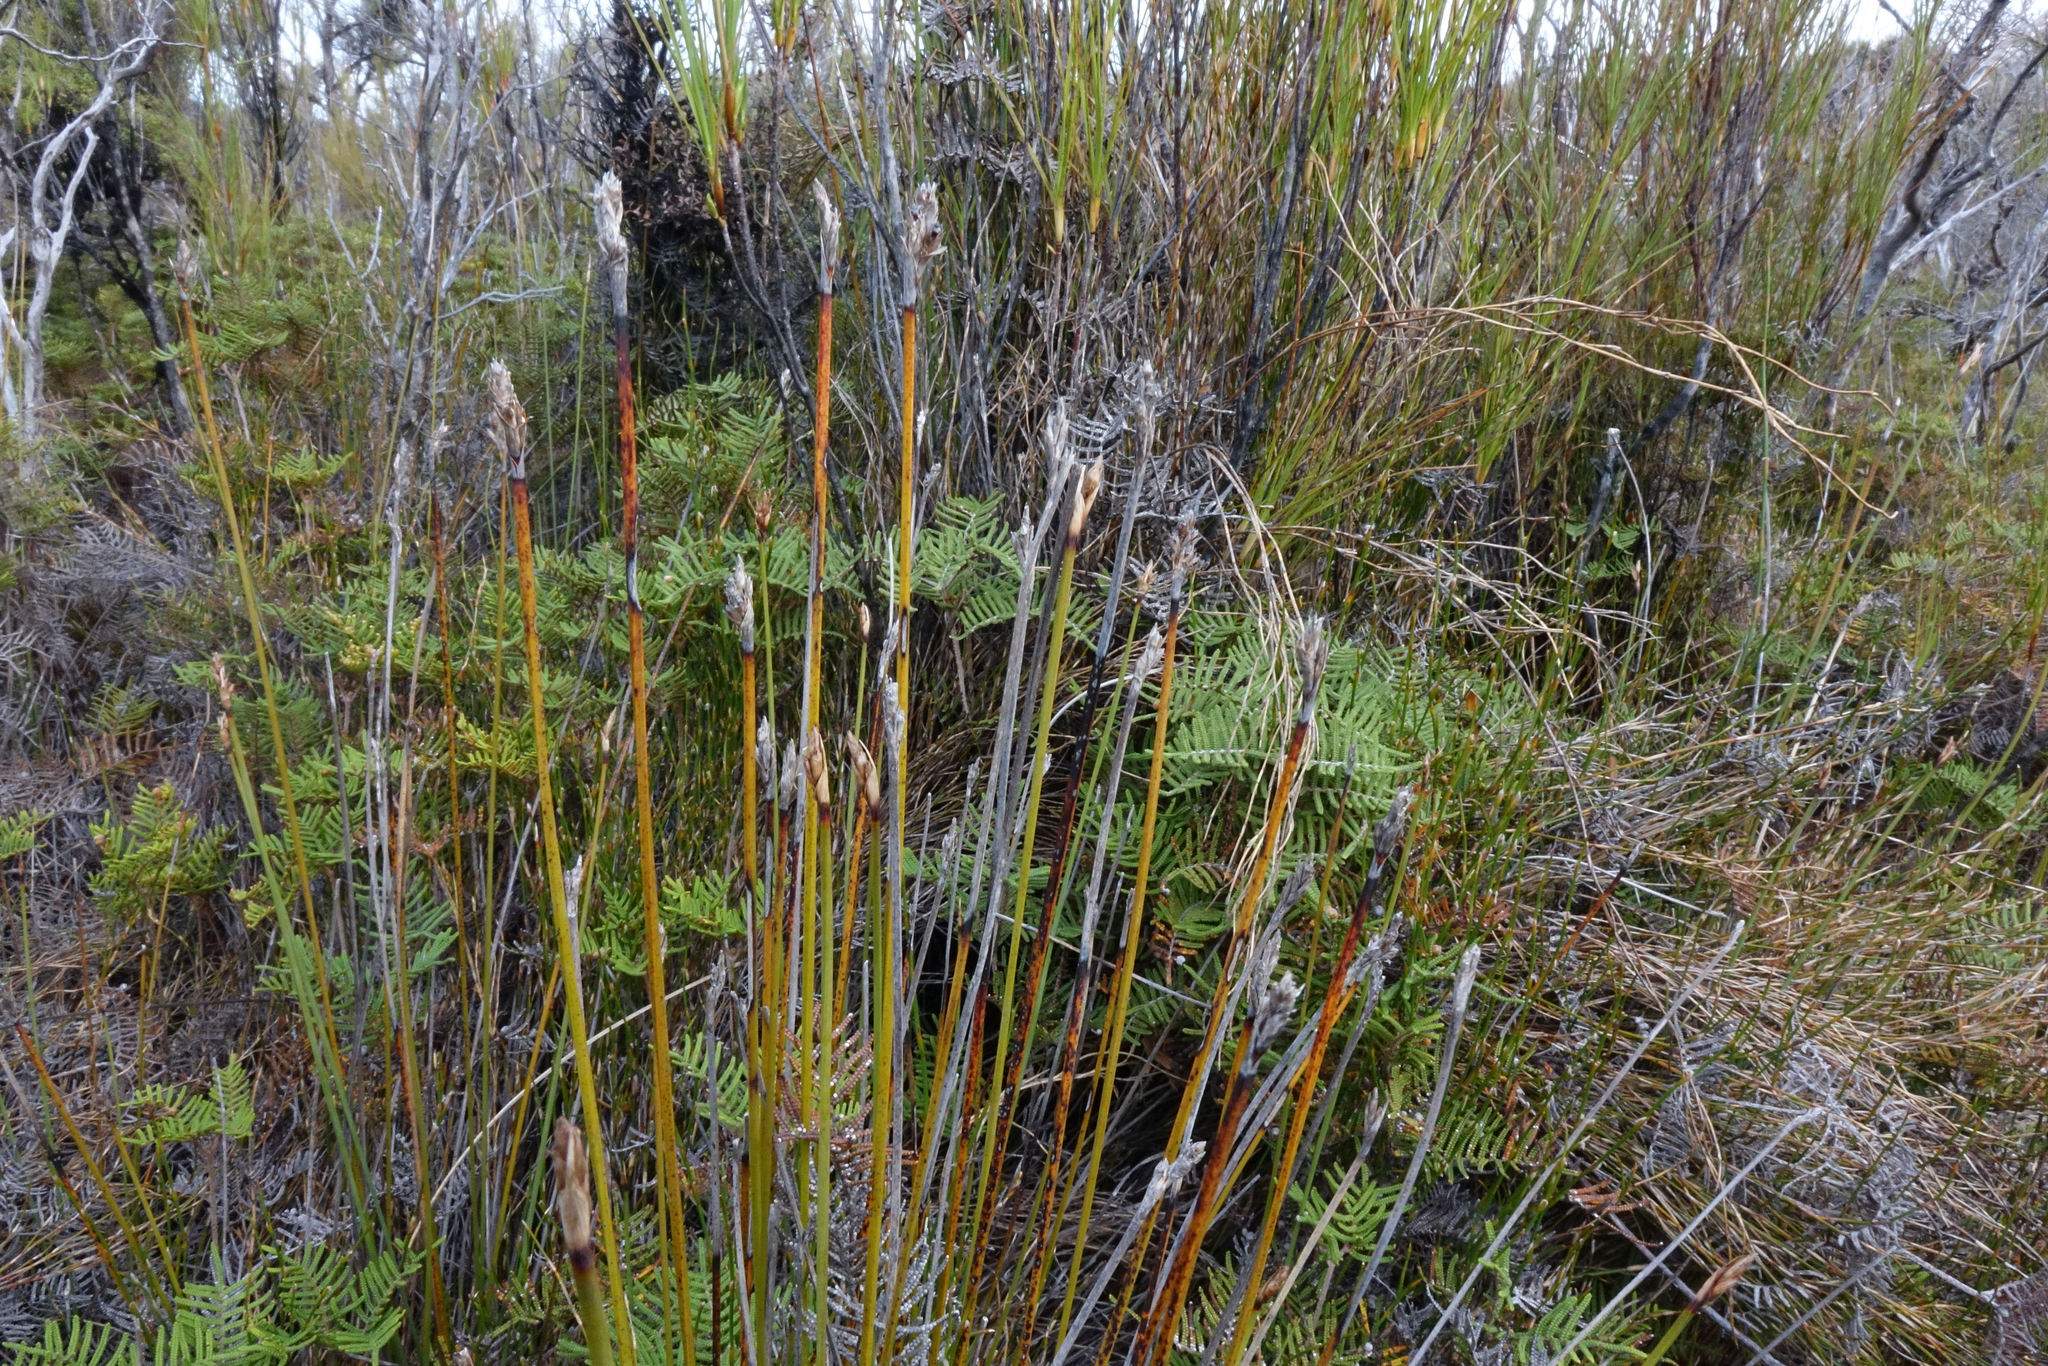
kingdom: Plantae
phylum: Tracheophyta
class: Liliopsida
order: Poales
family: Cyperaceae
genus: Lepidosperma
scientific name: Lepidosperma australe
